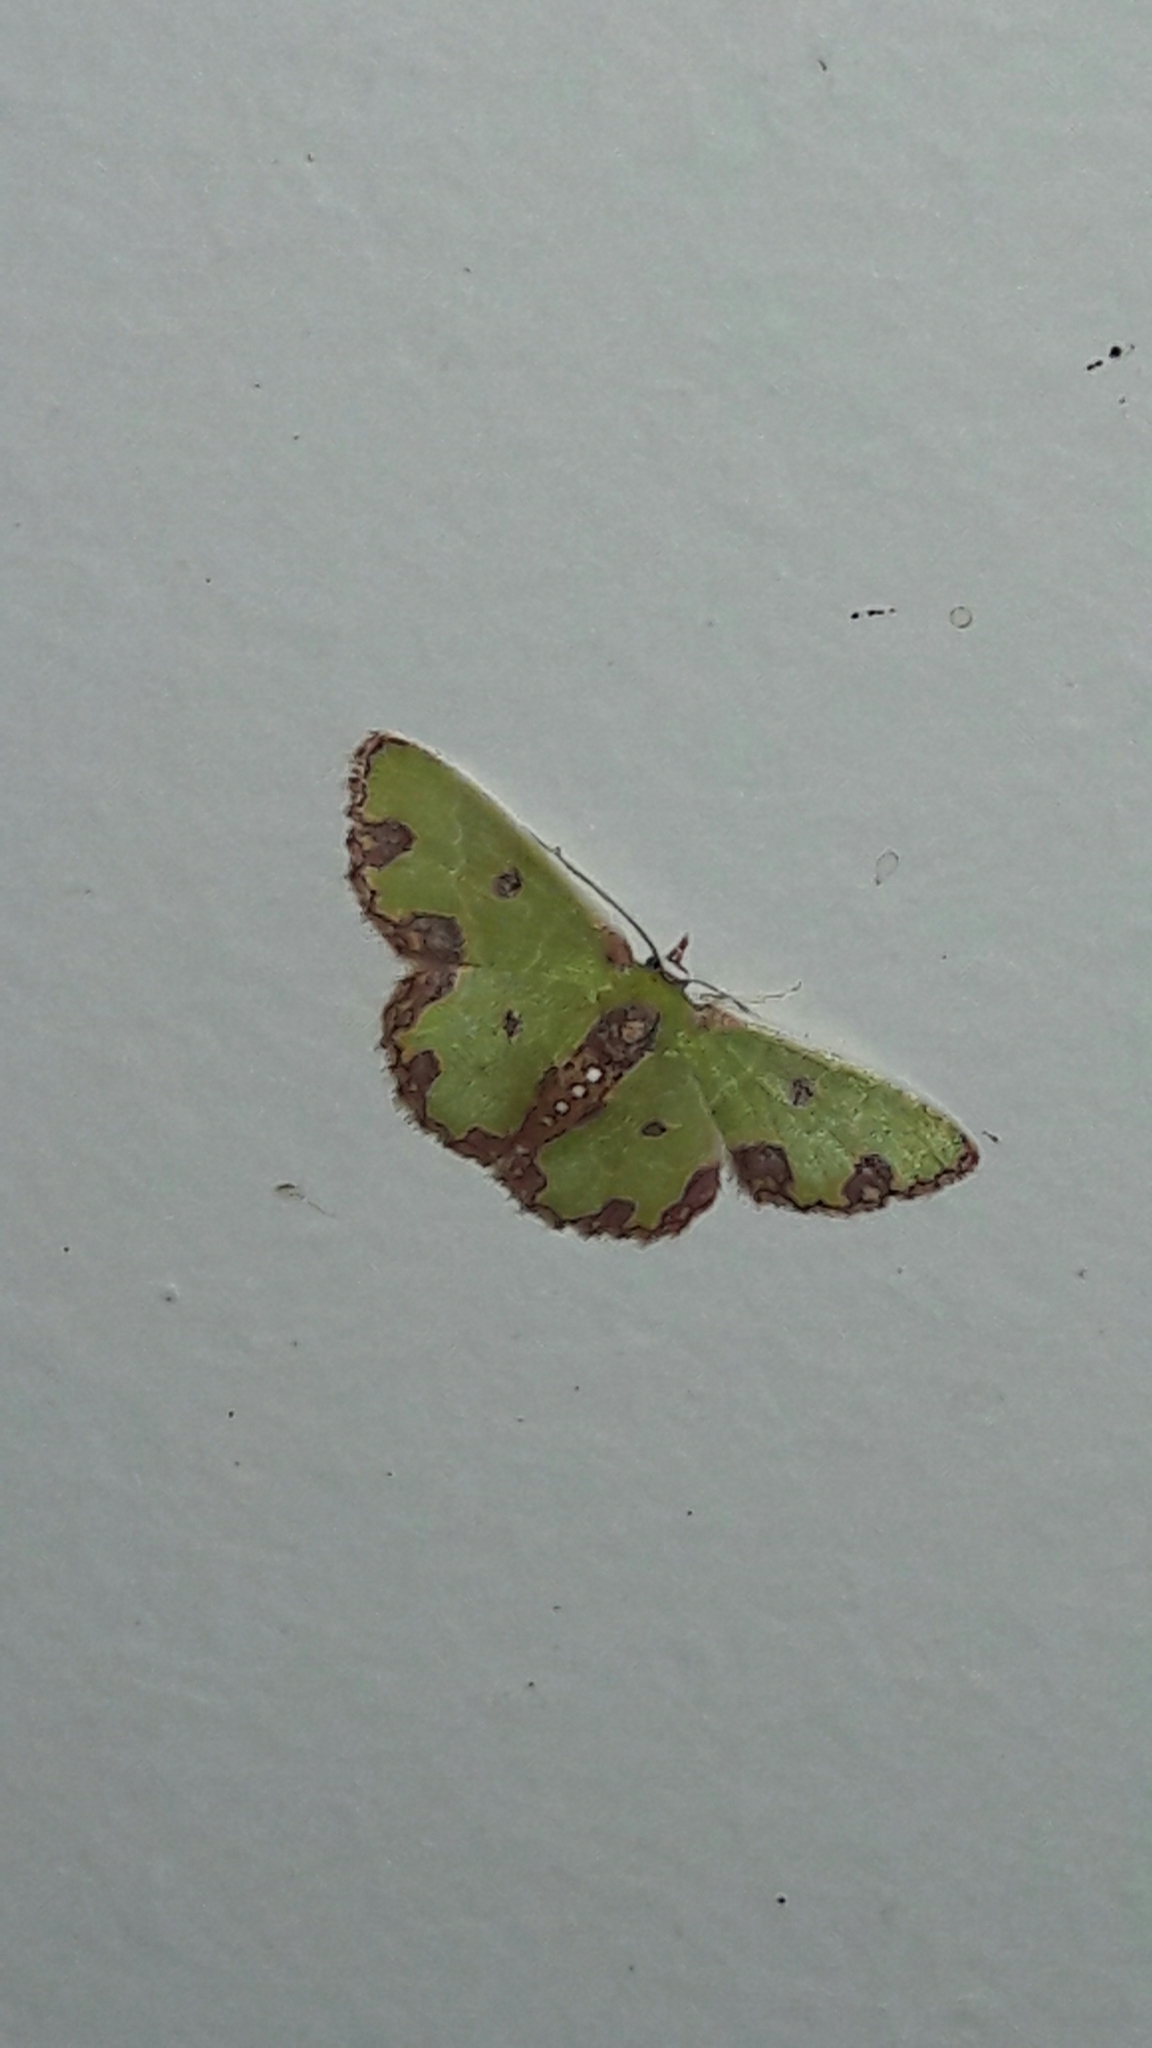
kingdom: Animalia
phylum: Arthropoda
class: Insecta
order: Lepidoptera
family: Geometridae
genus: Synchlora
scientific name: Synchlora gerularia
